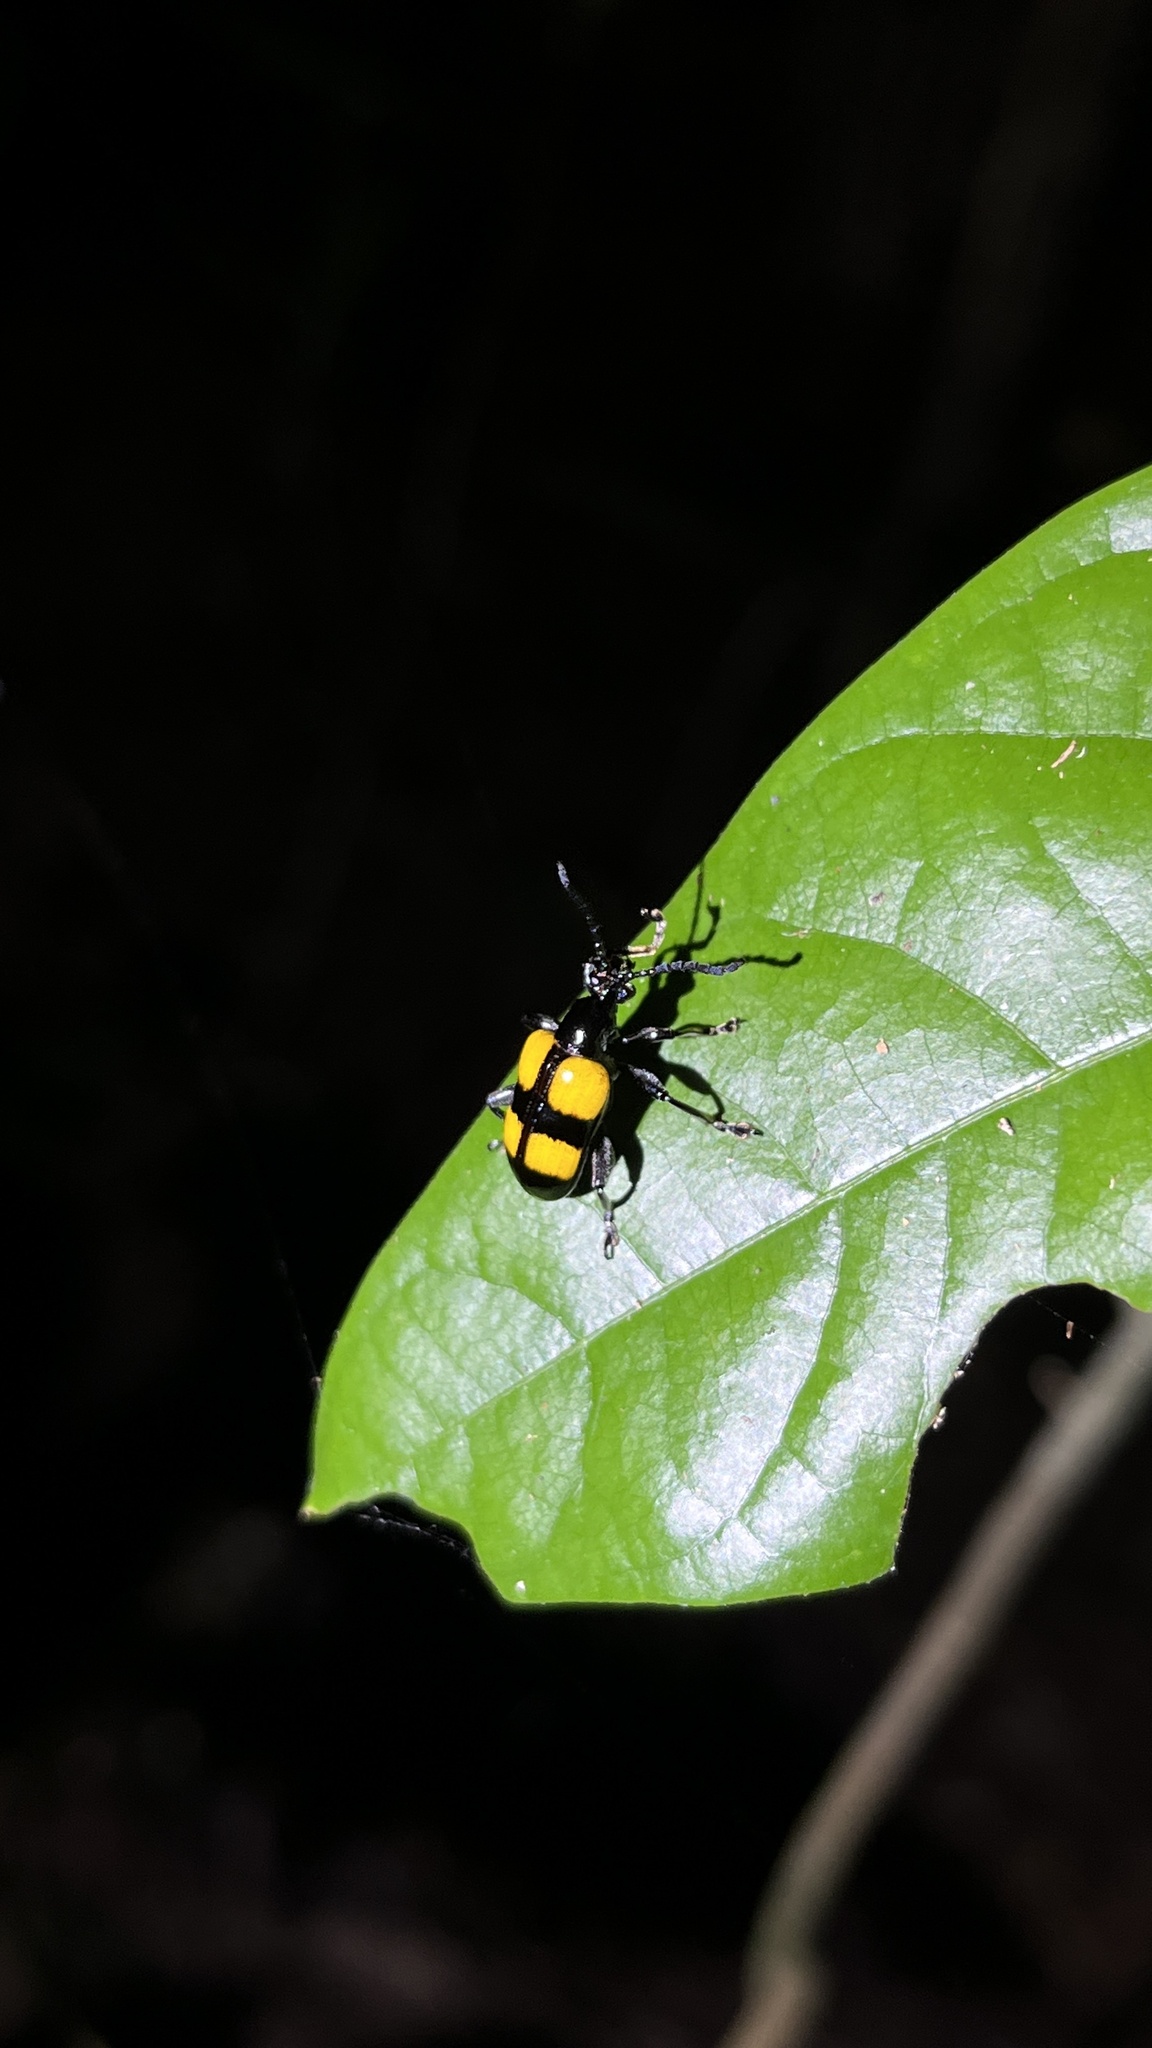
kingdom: Animalia
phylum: Arthropoda
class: Insecta
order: Coleoptera
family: Chrysomelidae
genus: Lilioceris
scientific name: Lilioceris
